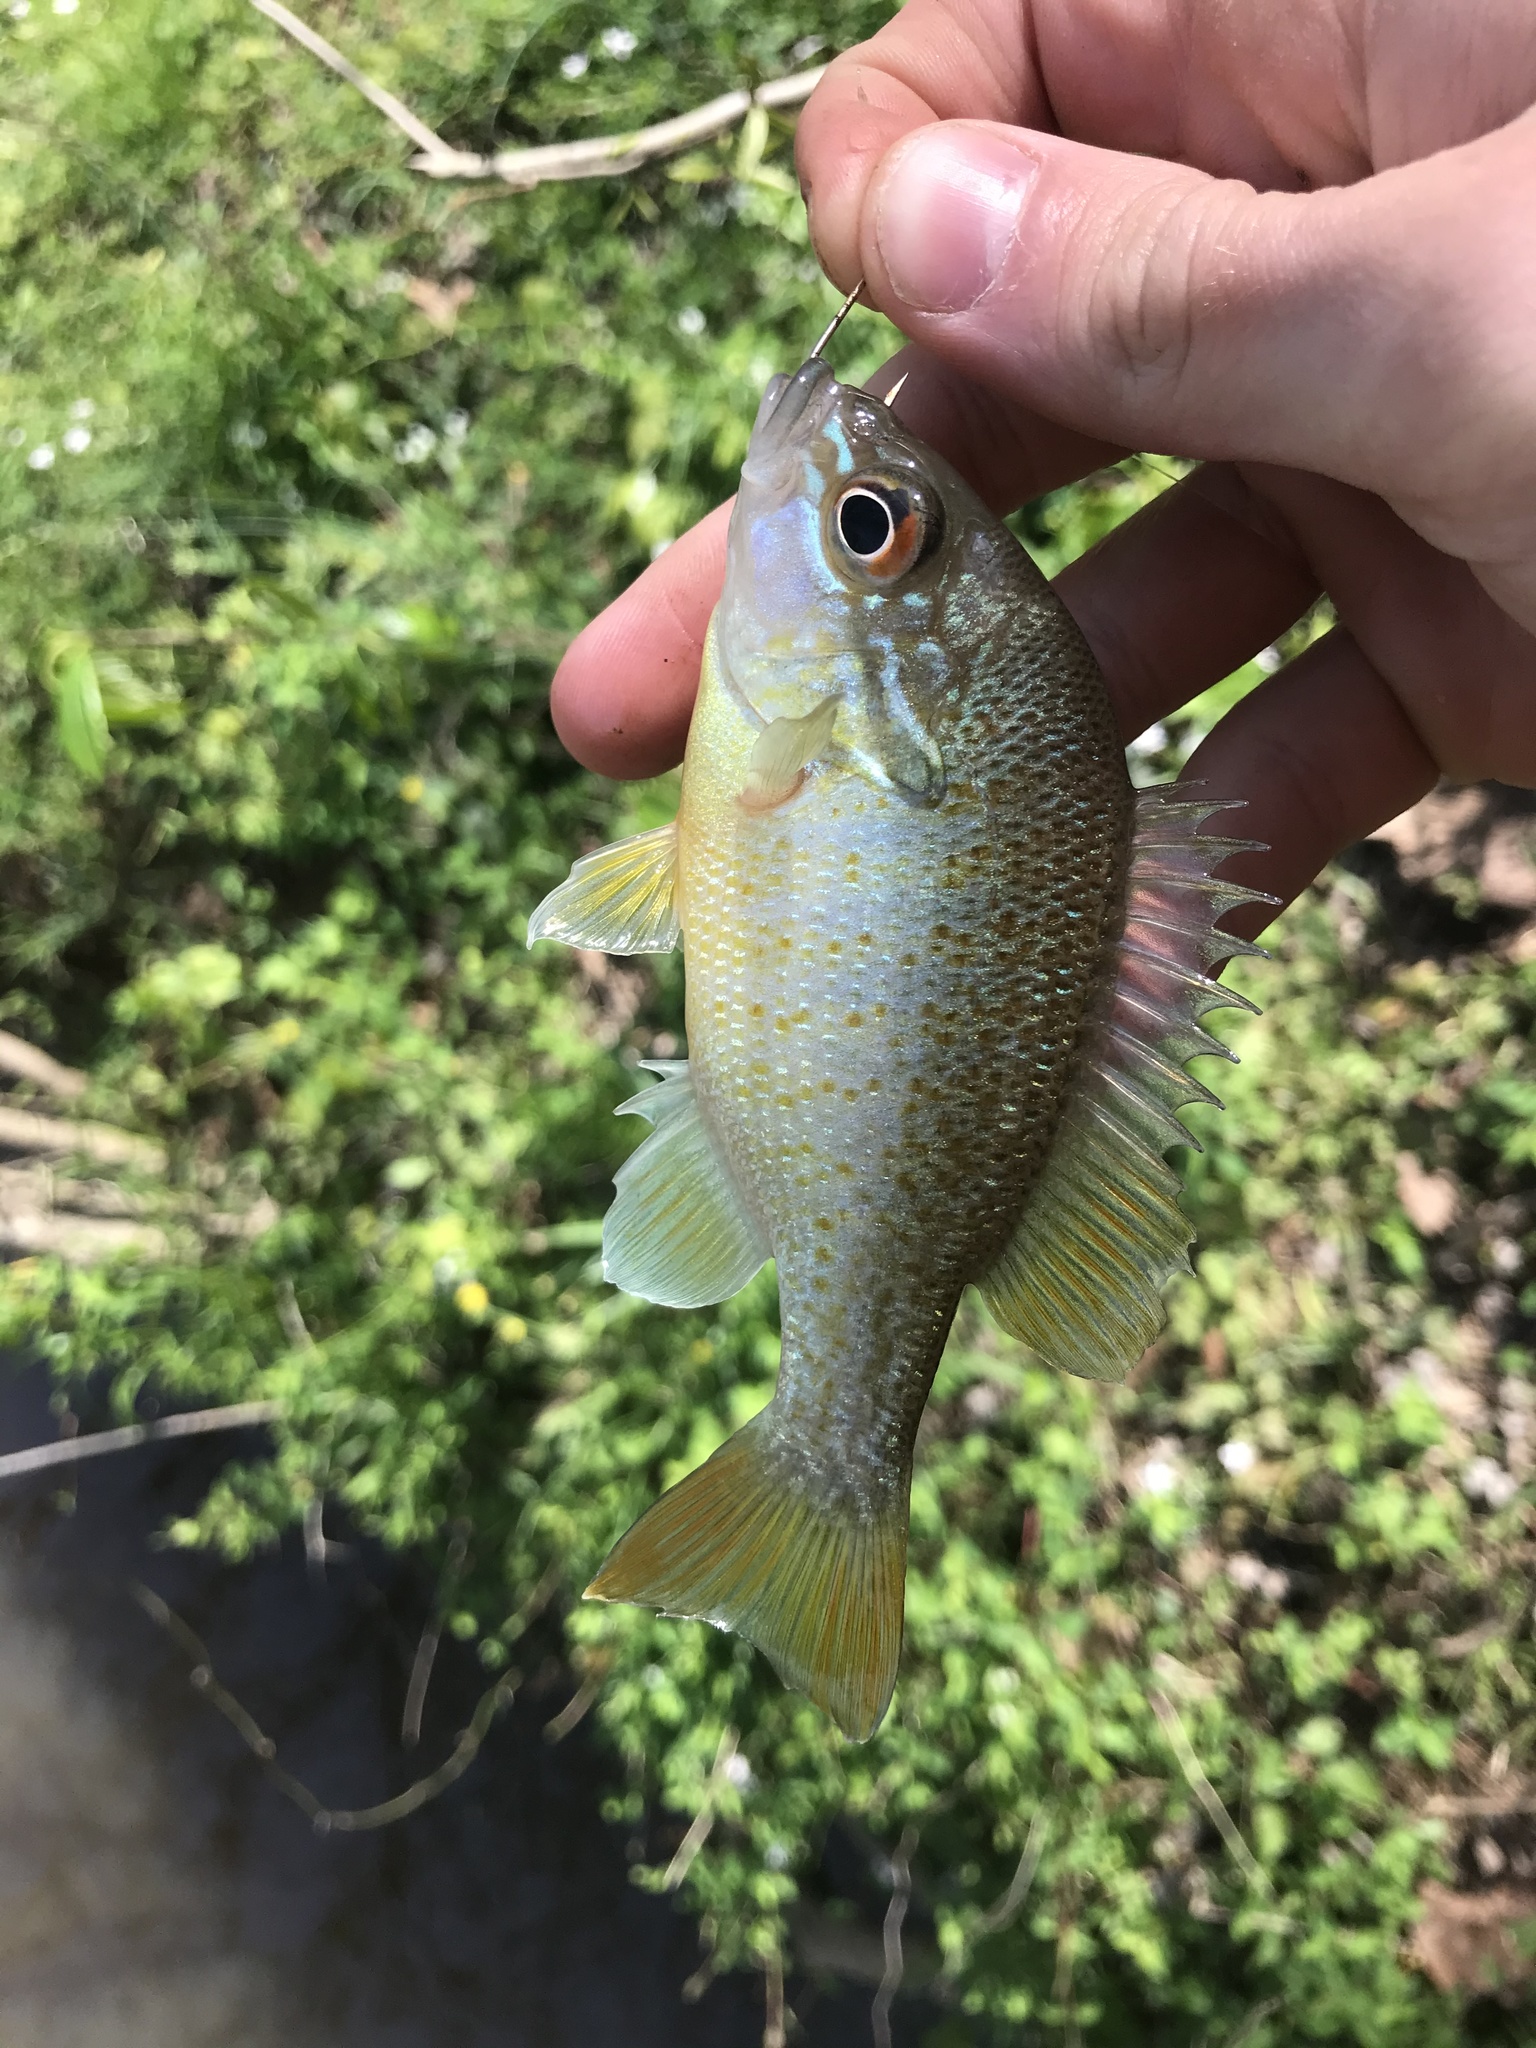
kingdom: Animalia
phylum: Chordata
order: Perciformes
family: Centrarchidae
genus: Lepomis
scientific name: Lepomis auritus
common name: Redbreast sunfish
